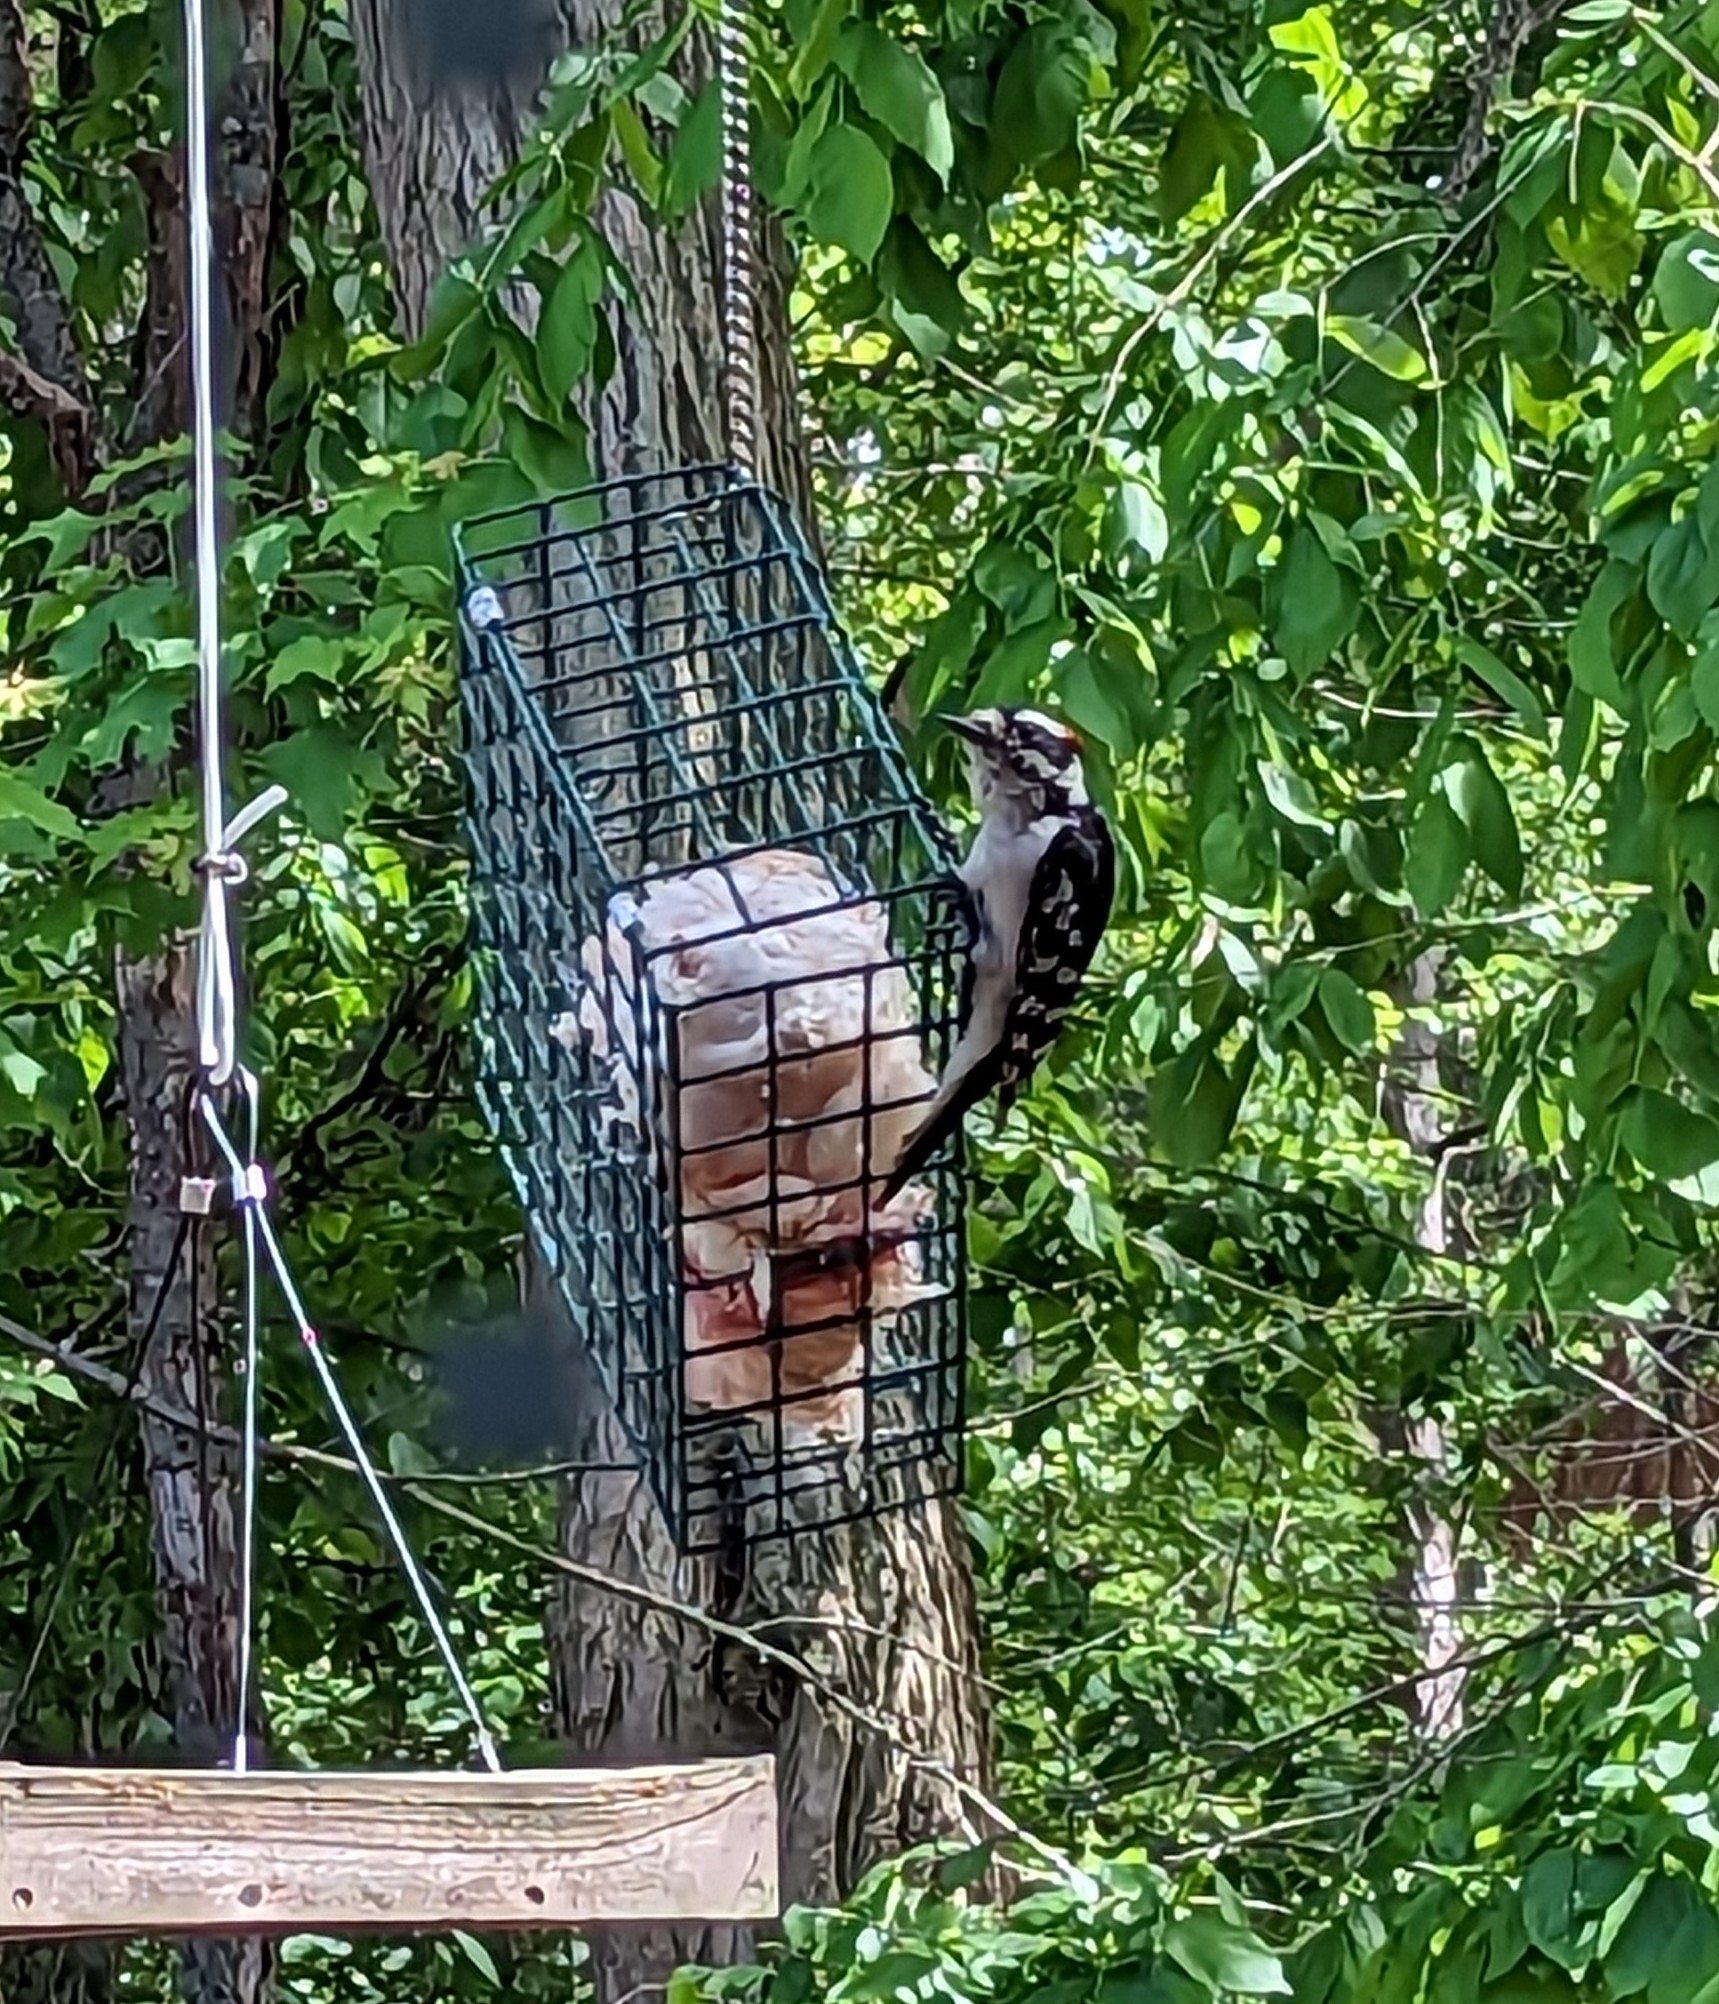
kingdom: Animalia
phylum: Chordata
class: Aves
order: Piciformes
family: Picidae
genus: Dryobates
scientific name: Dryobates pubescens
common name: Downy woodpecker
